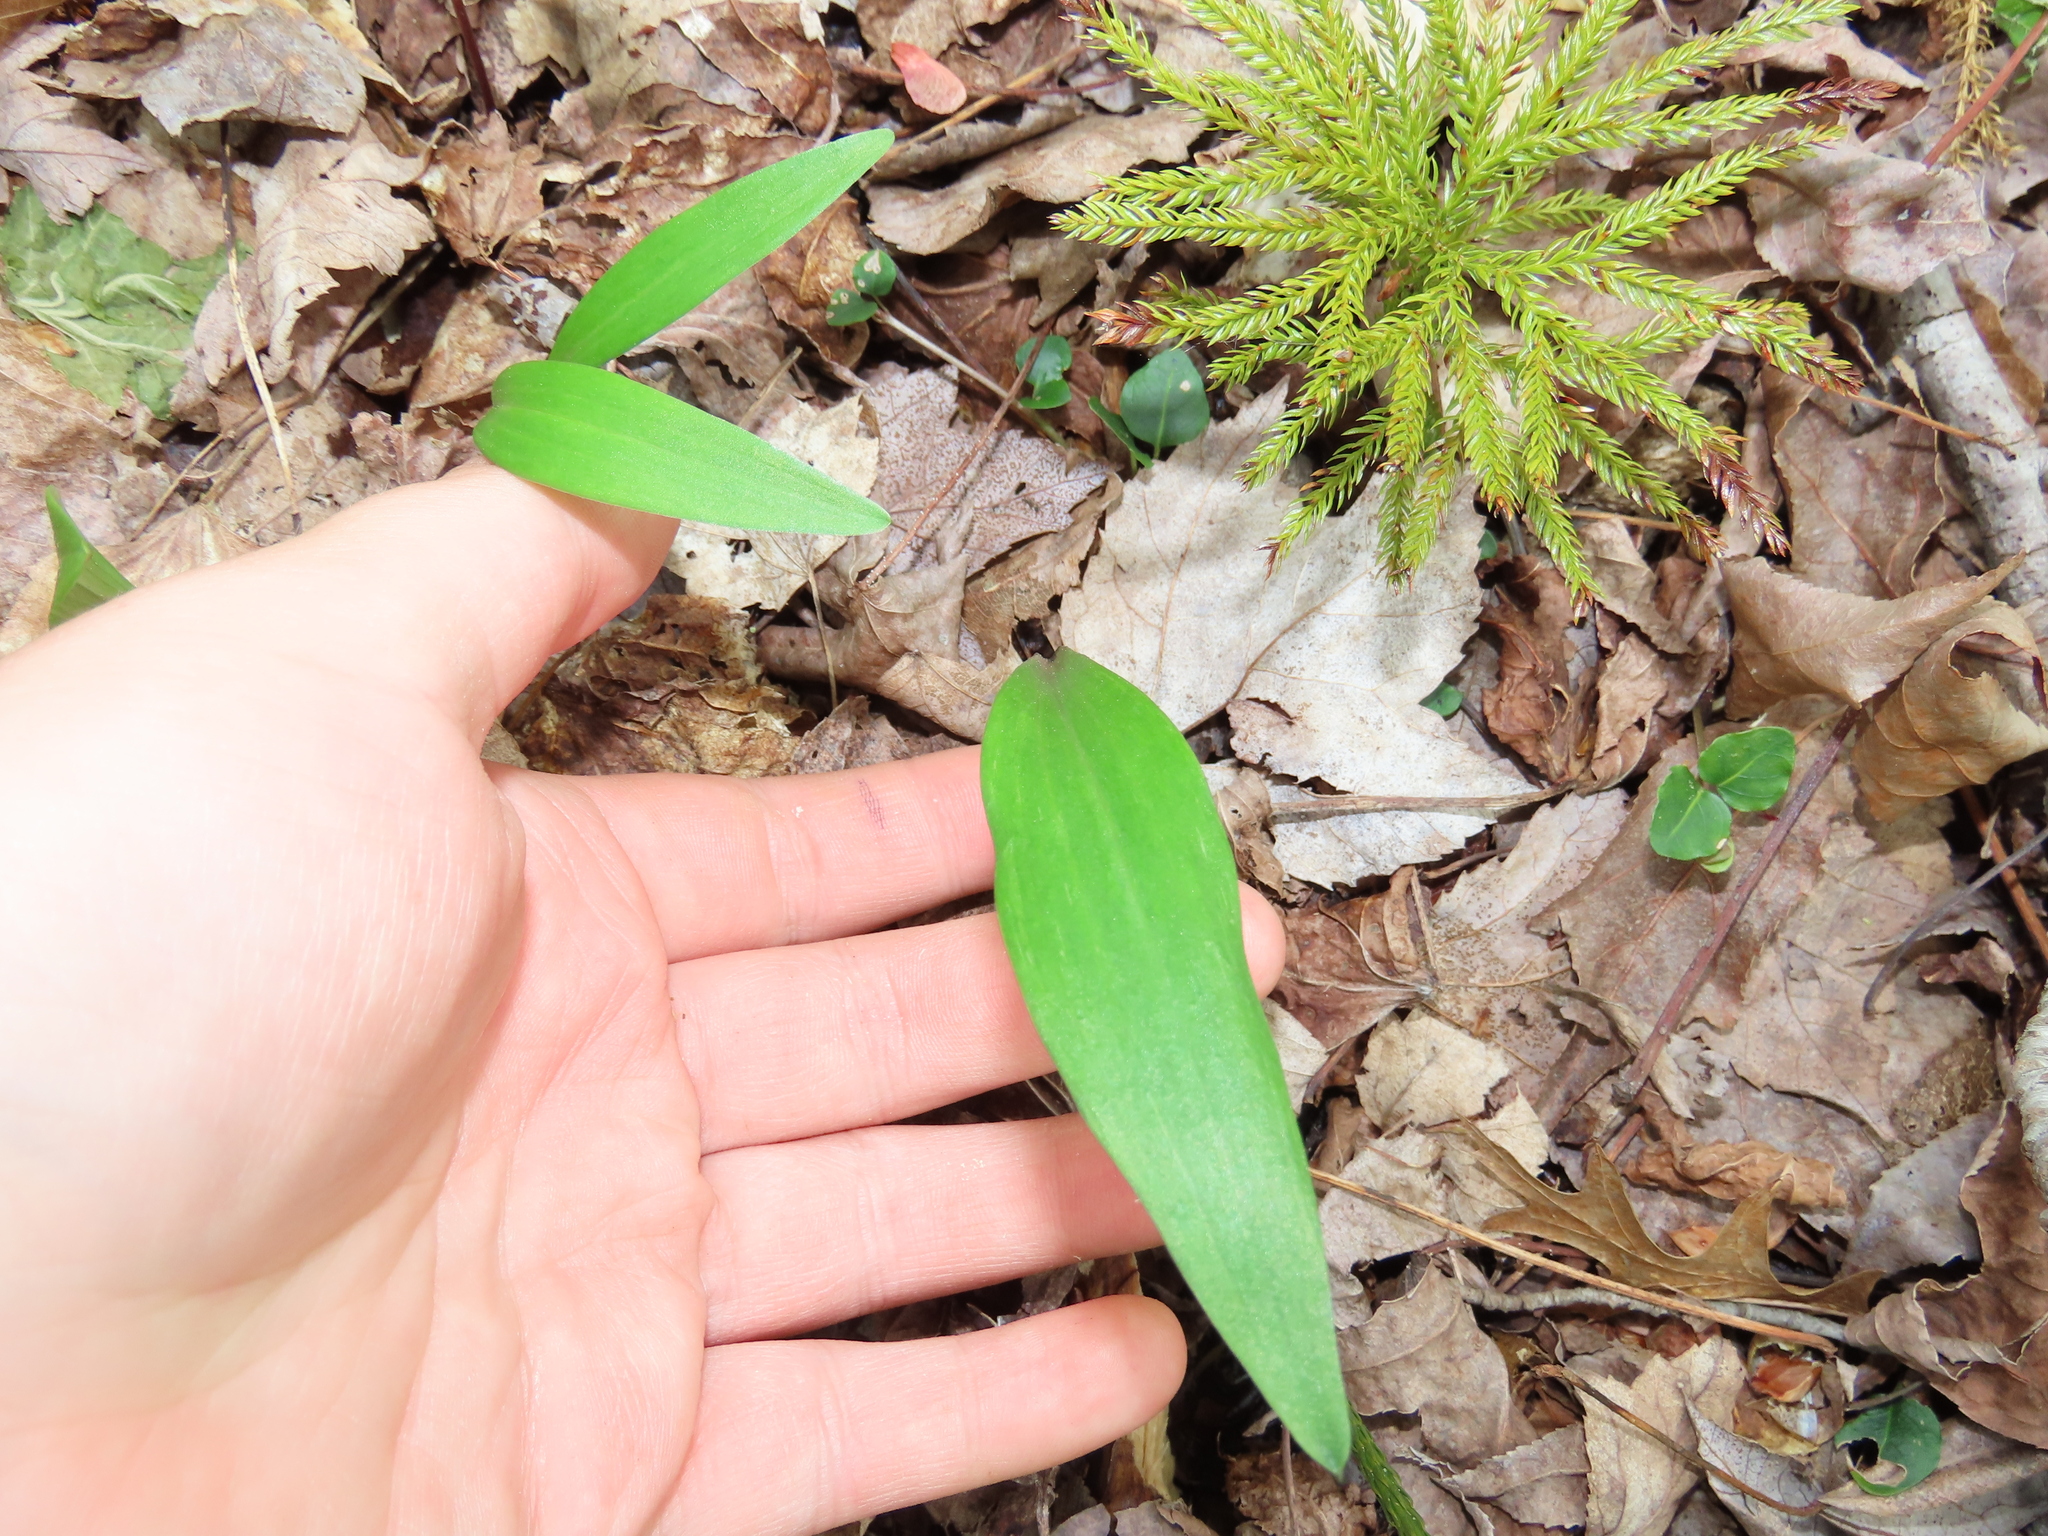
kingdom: Plantae
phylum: Tracheophyta
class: Liliopsida
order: Asparagales
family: Amaryllidaceae
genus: Allium
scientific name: Allium tricoccum
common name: Ramp
